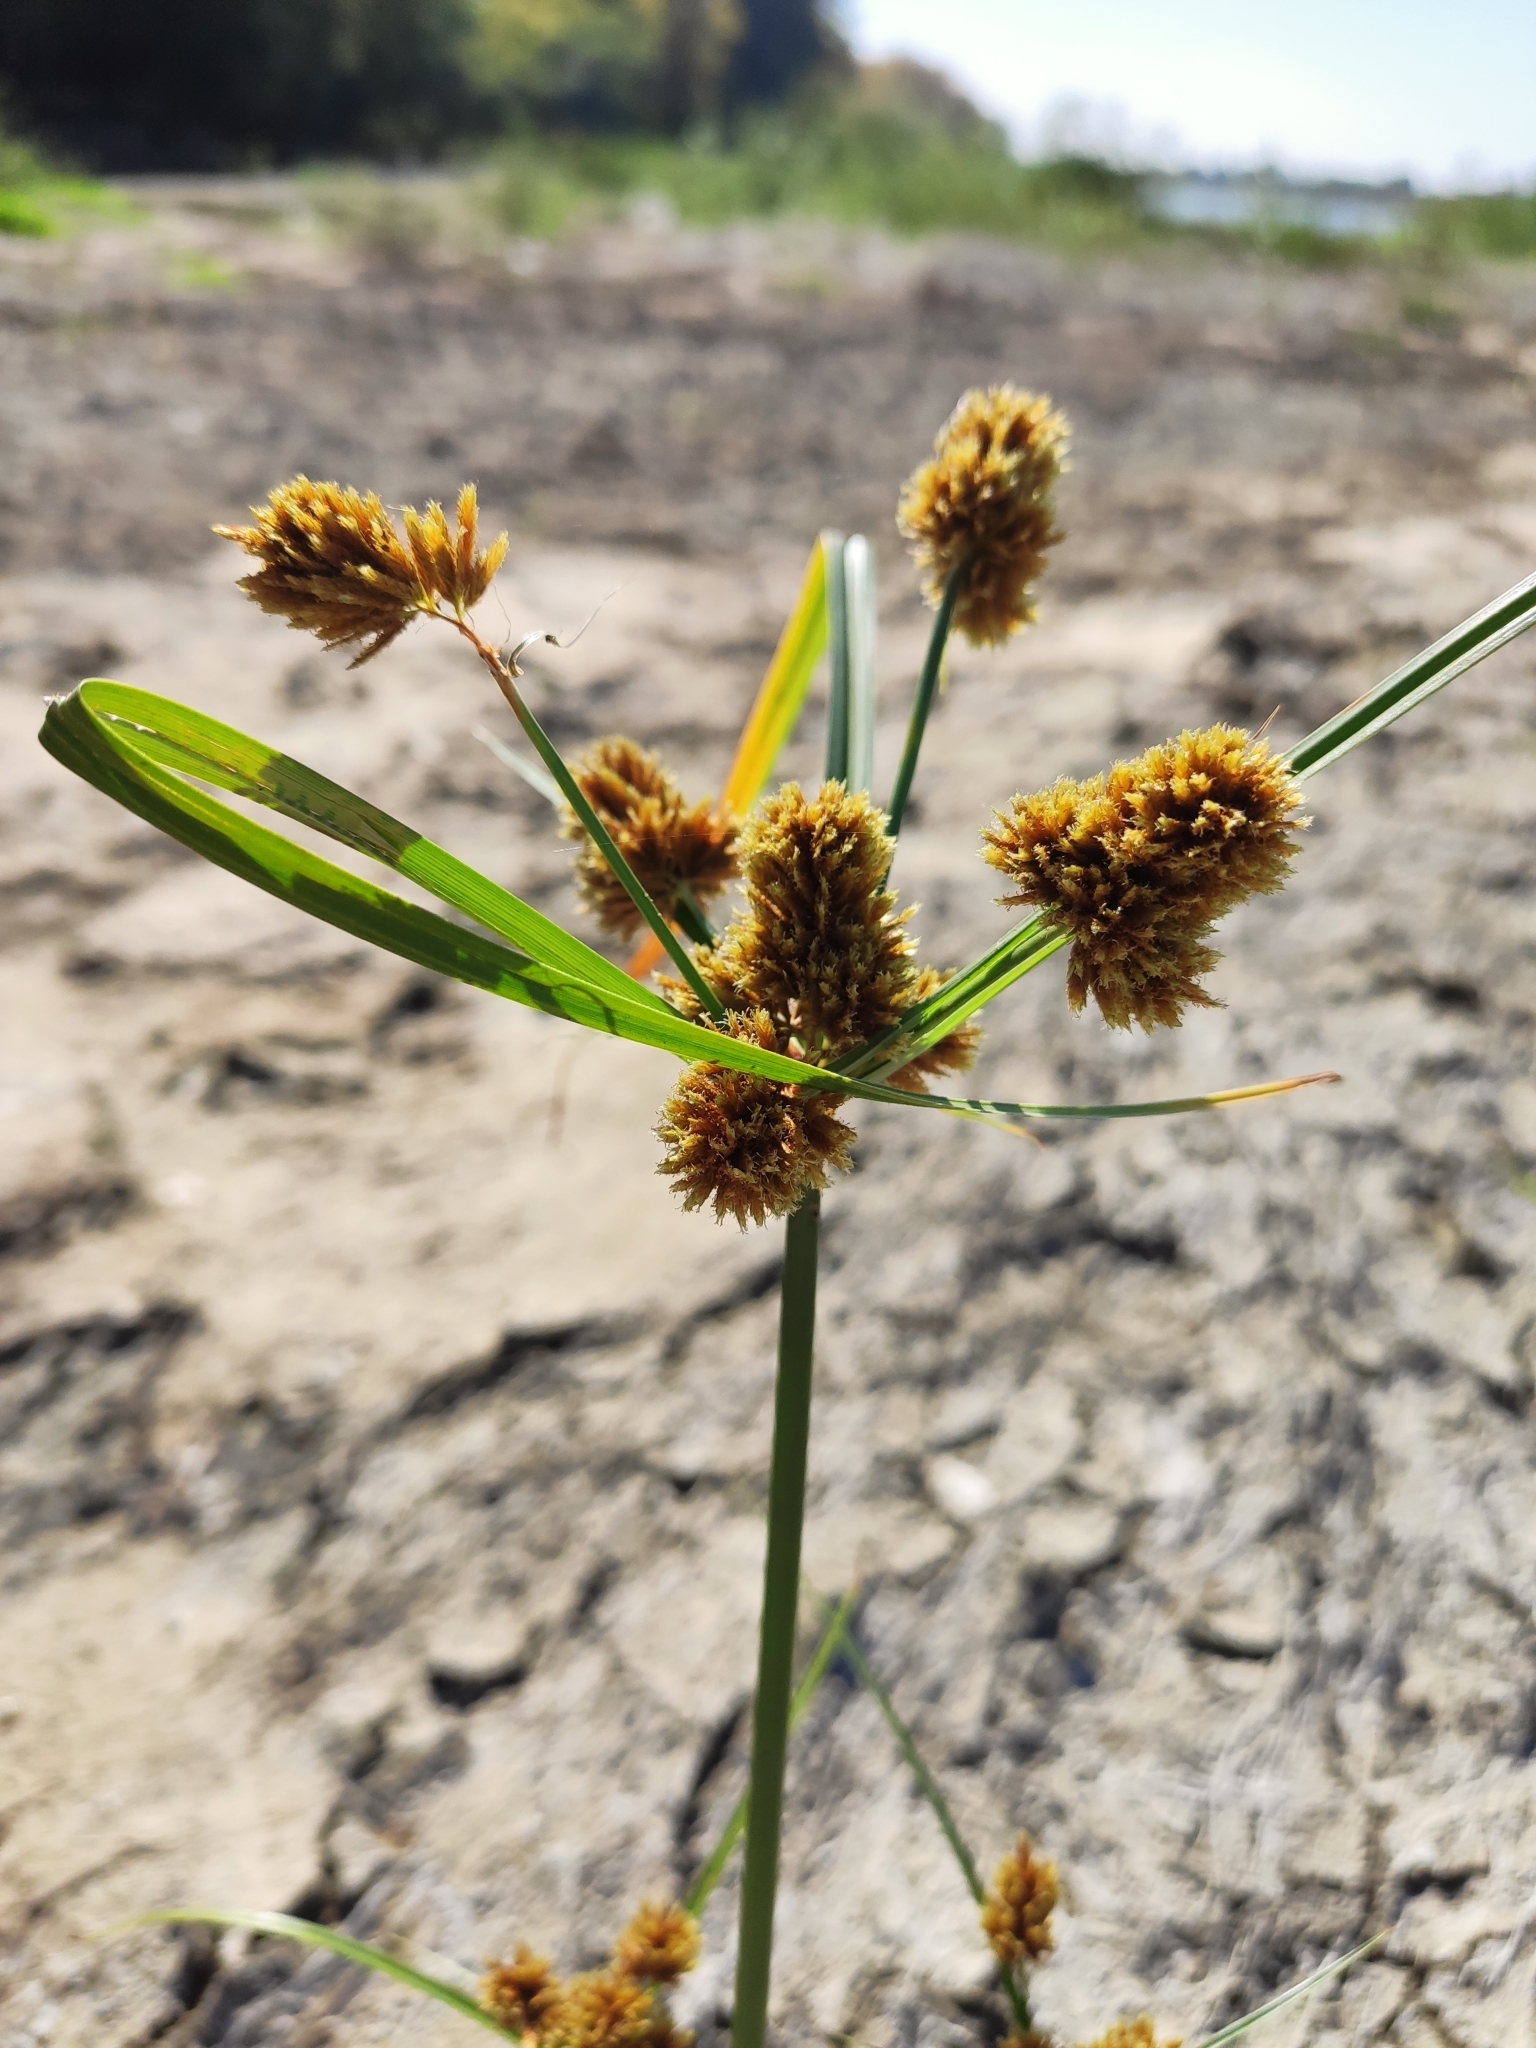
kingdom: Plantae
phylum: Tracheophyta
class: Liliopsida
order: Poales
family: Cyperaceae
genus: Cyperus
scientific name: Cyperus glomeratus
